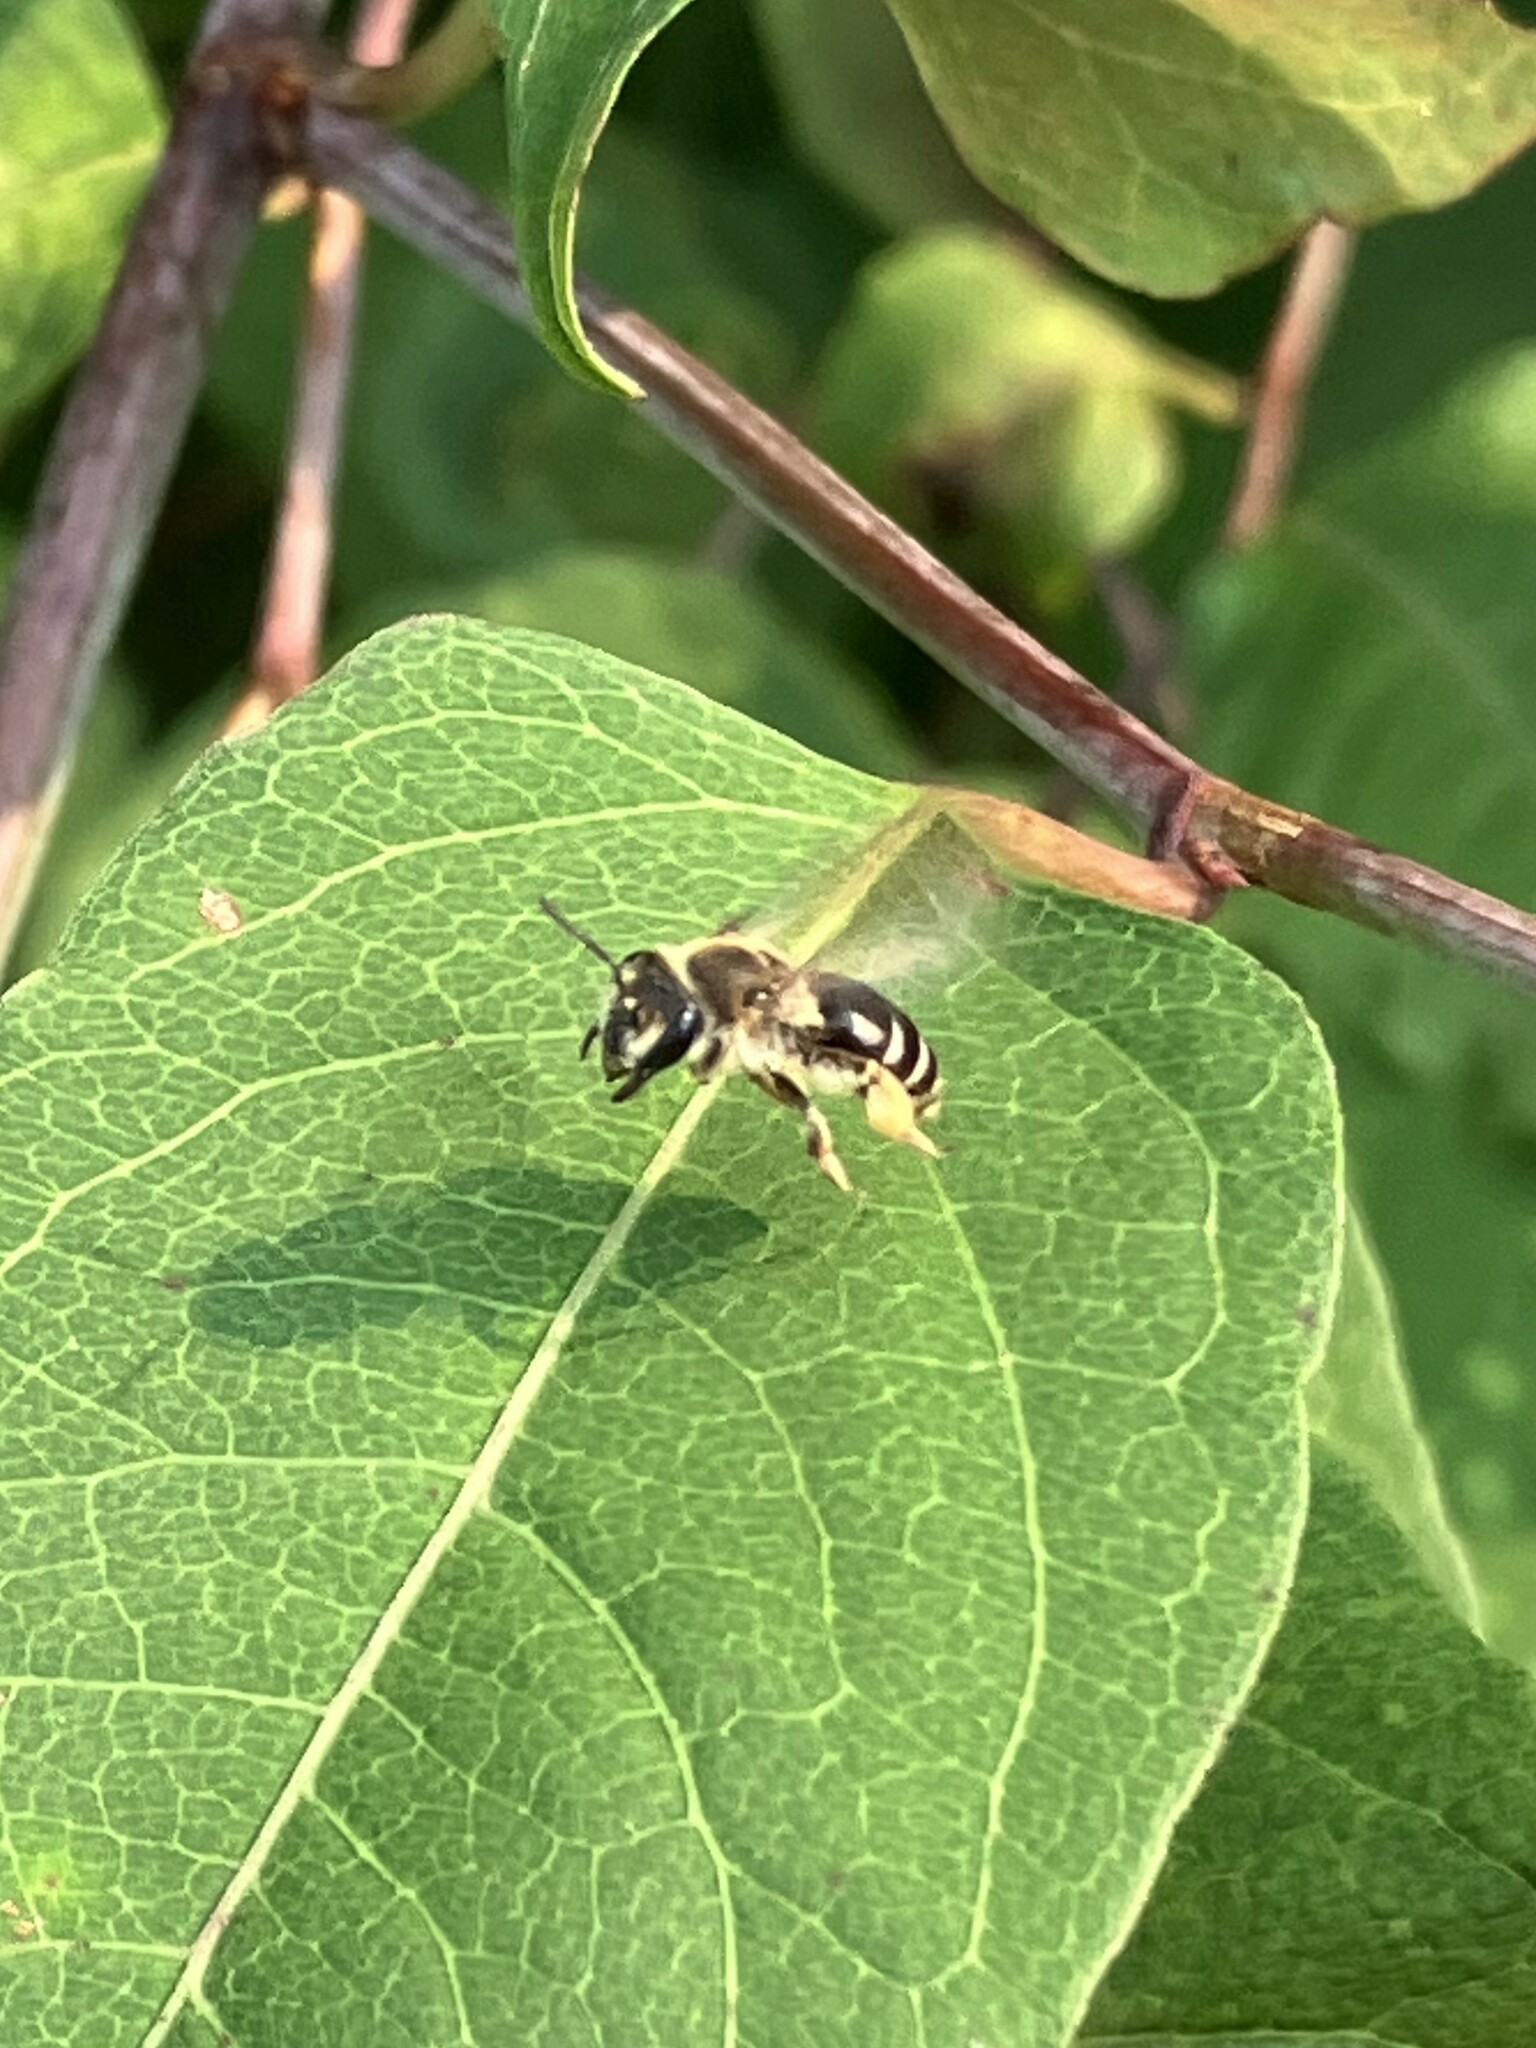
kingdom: Animalia
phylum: Arthropoda
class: Insecta
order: Hymenoptera
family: Andrenidae
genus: Andrena
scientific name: Andrena wilkella
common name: Wilke's mining bee
